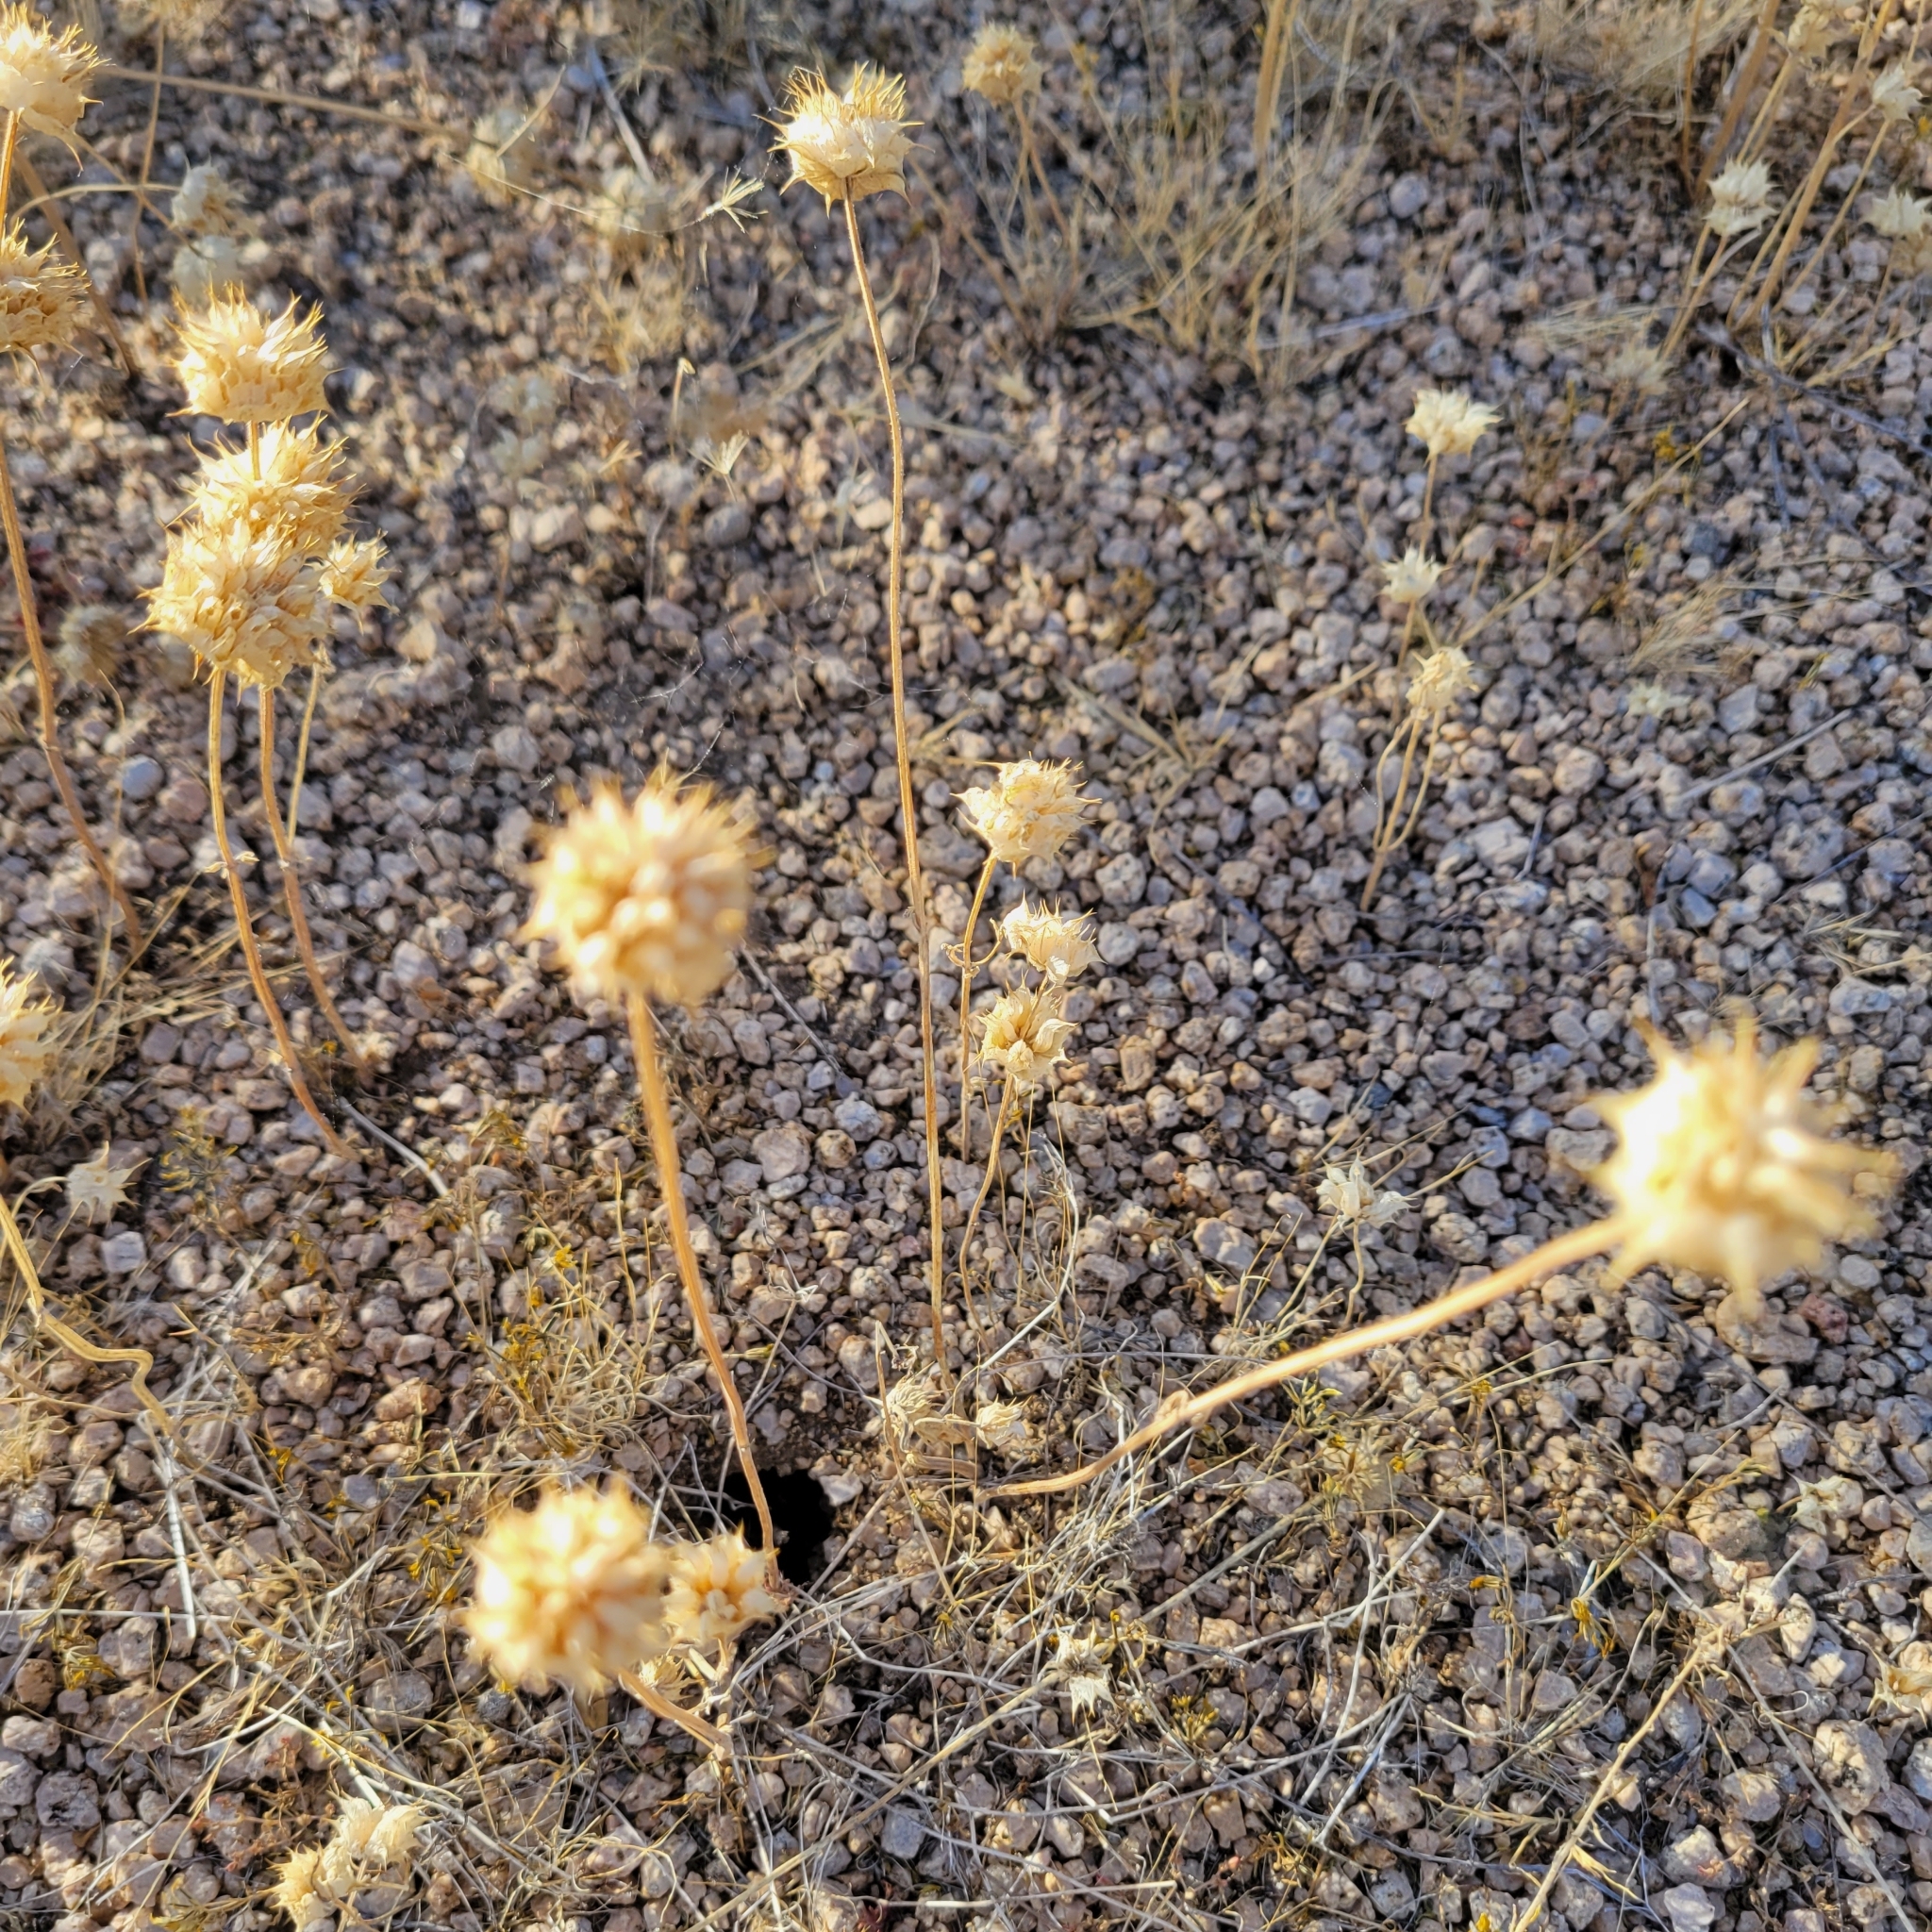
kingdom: Plantae
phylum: Tracheophyta
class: Magnoliopsida
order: Lamiales
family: Lamiaceae
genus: Salvia
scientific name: Salvia columbariae
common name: Chia
